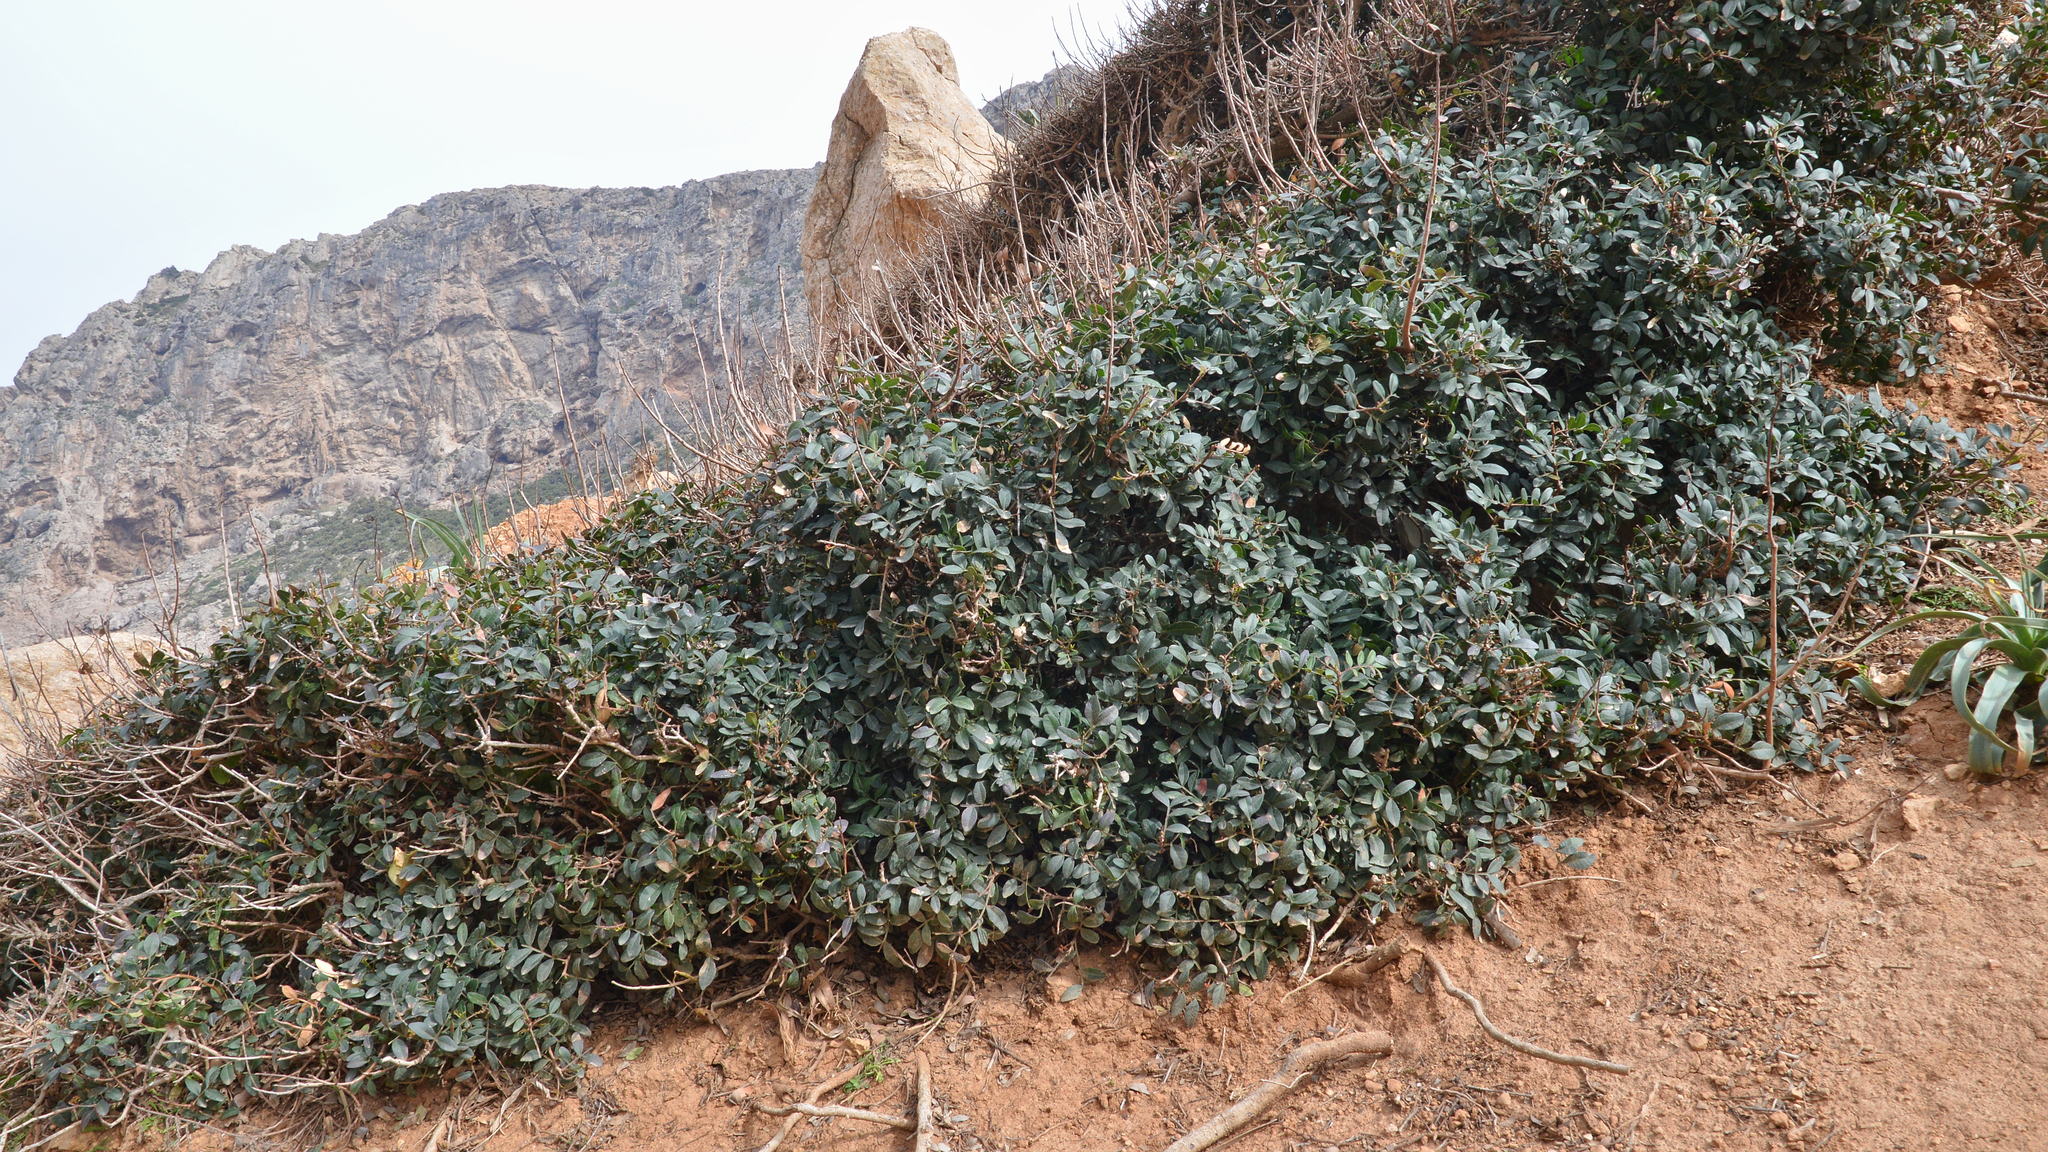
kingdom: Plantae
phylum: Tracheophyta
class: Magnoliopsida
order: Sapindales
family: Anacardiaceae
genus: Pistacia
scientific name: Pistacia lentiscus
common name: Lentisk
